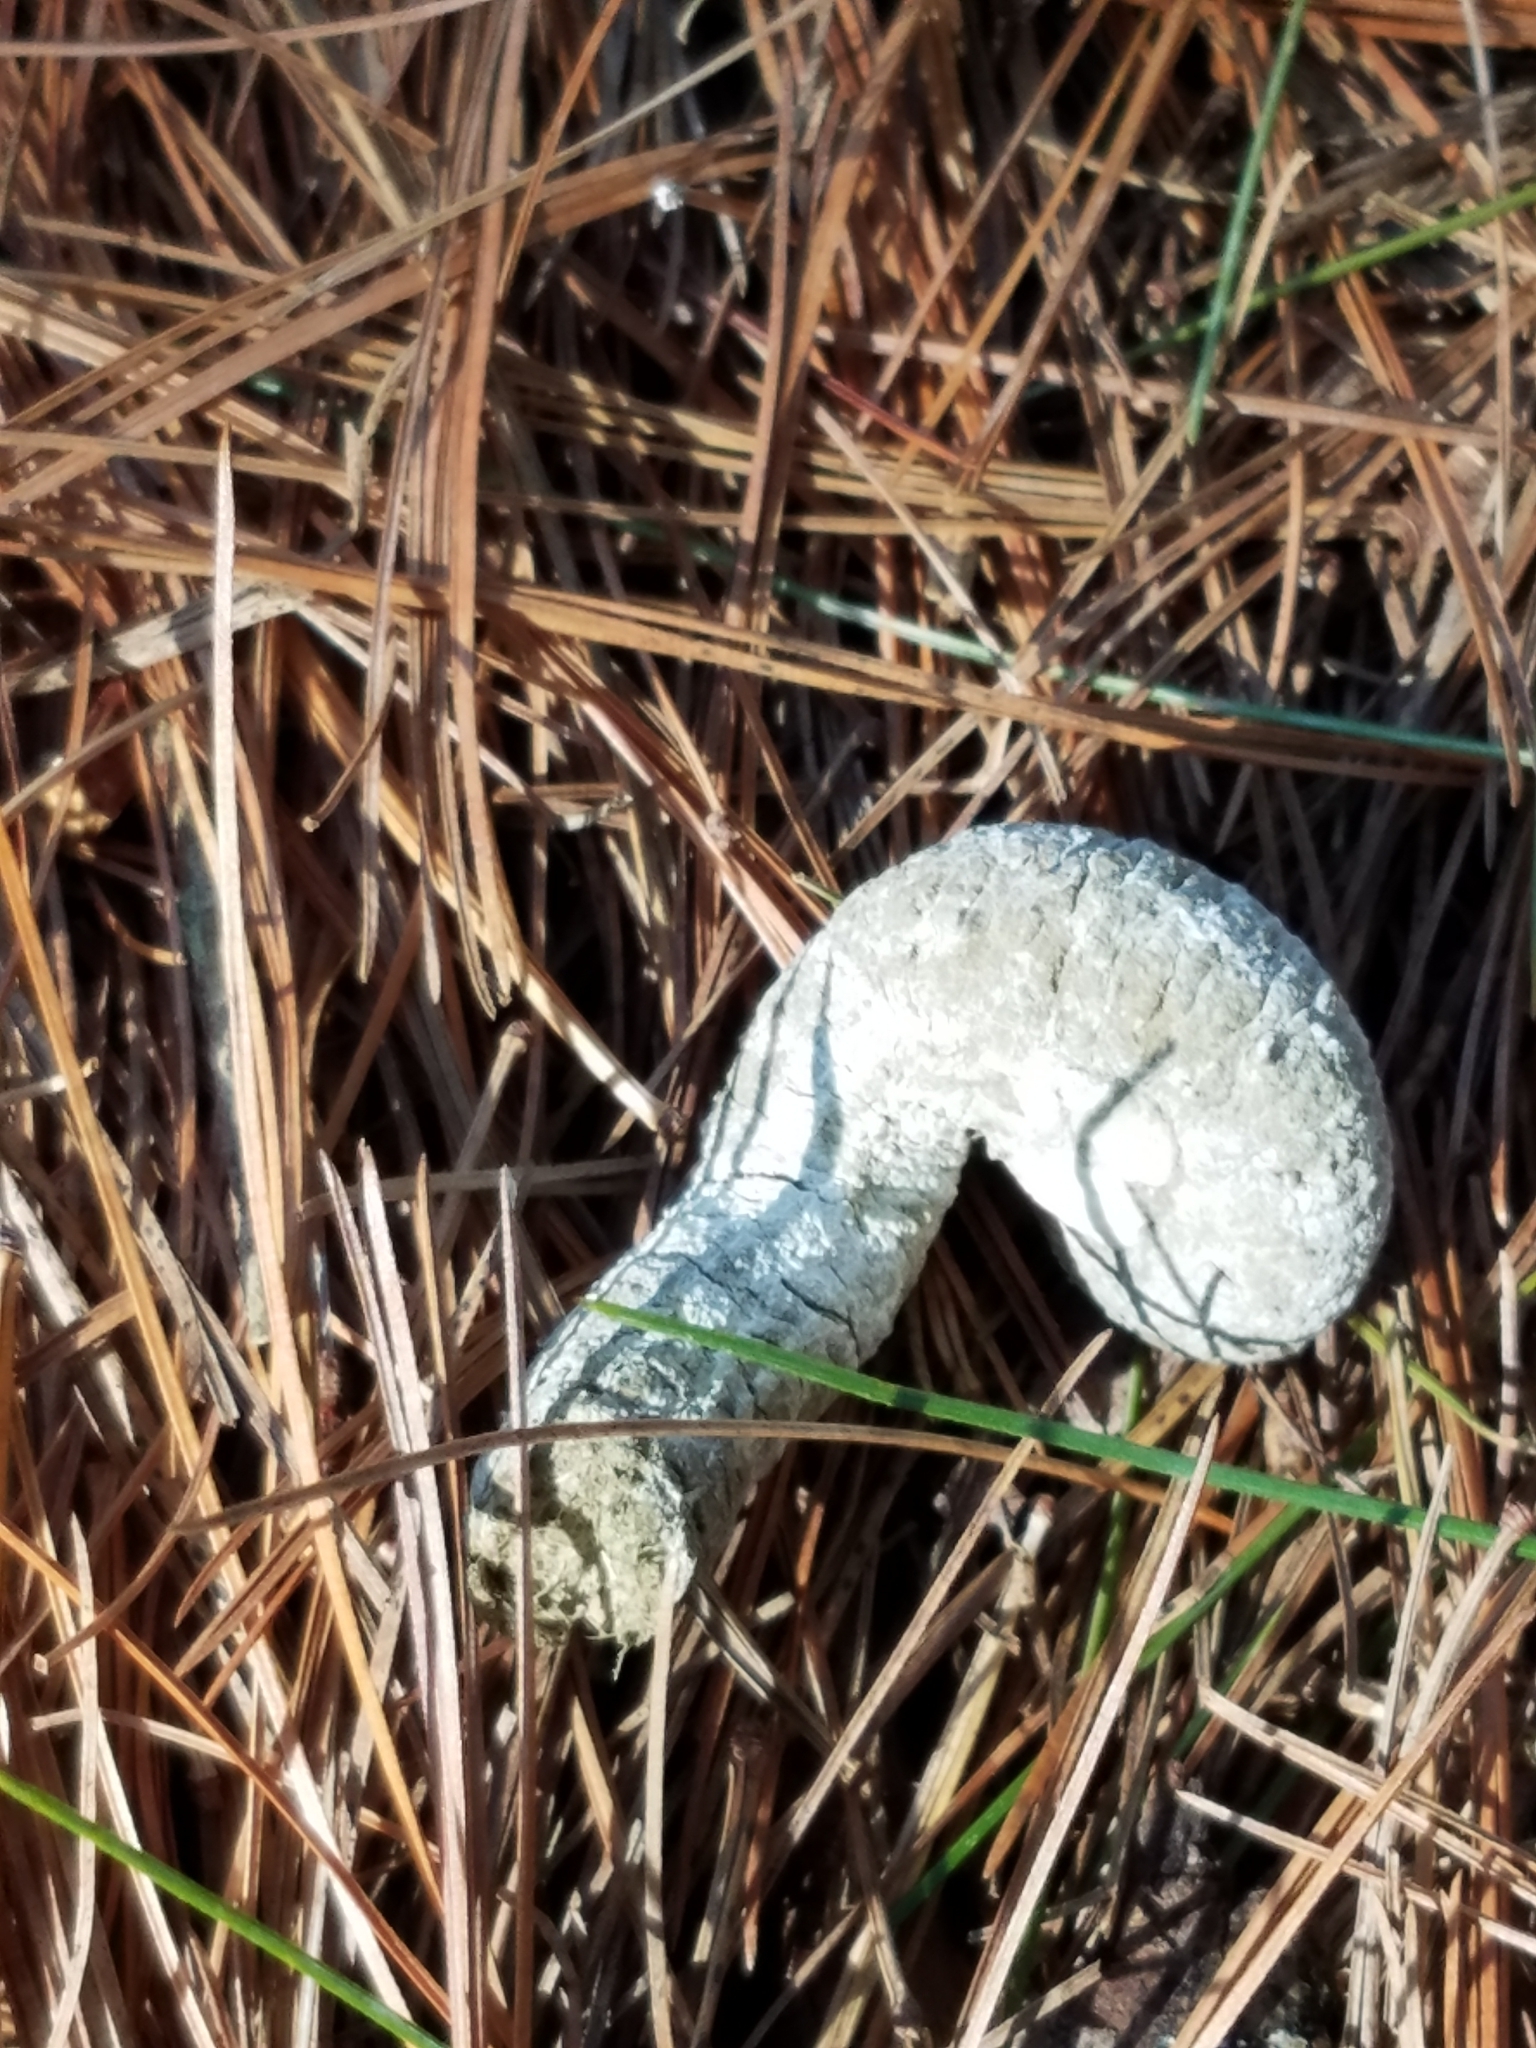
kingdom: Animalia
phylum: Chordata
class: Aves
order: Galliformes
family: Phasianidae
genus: Meleagris
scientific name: Meleagris gallopavo
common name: Wild turkey
